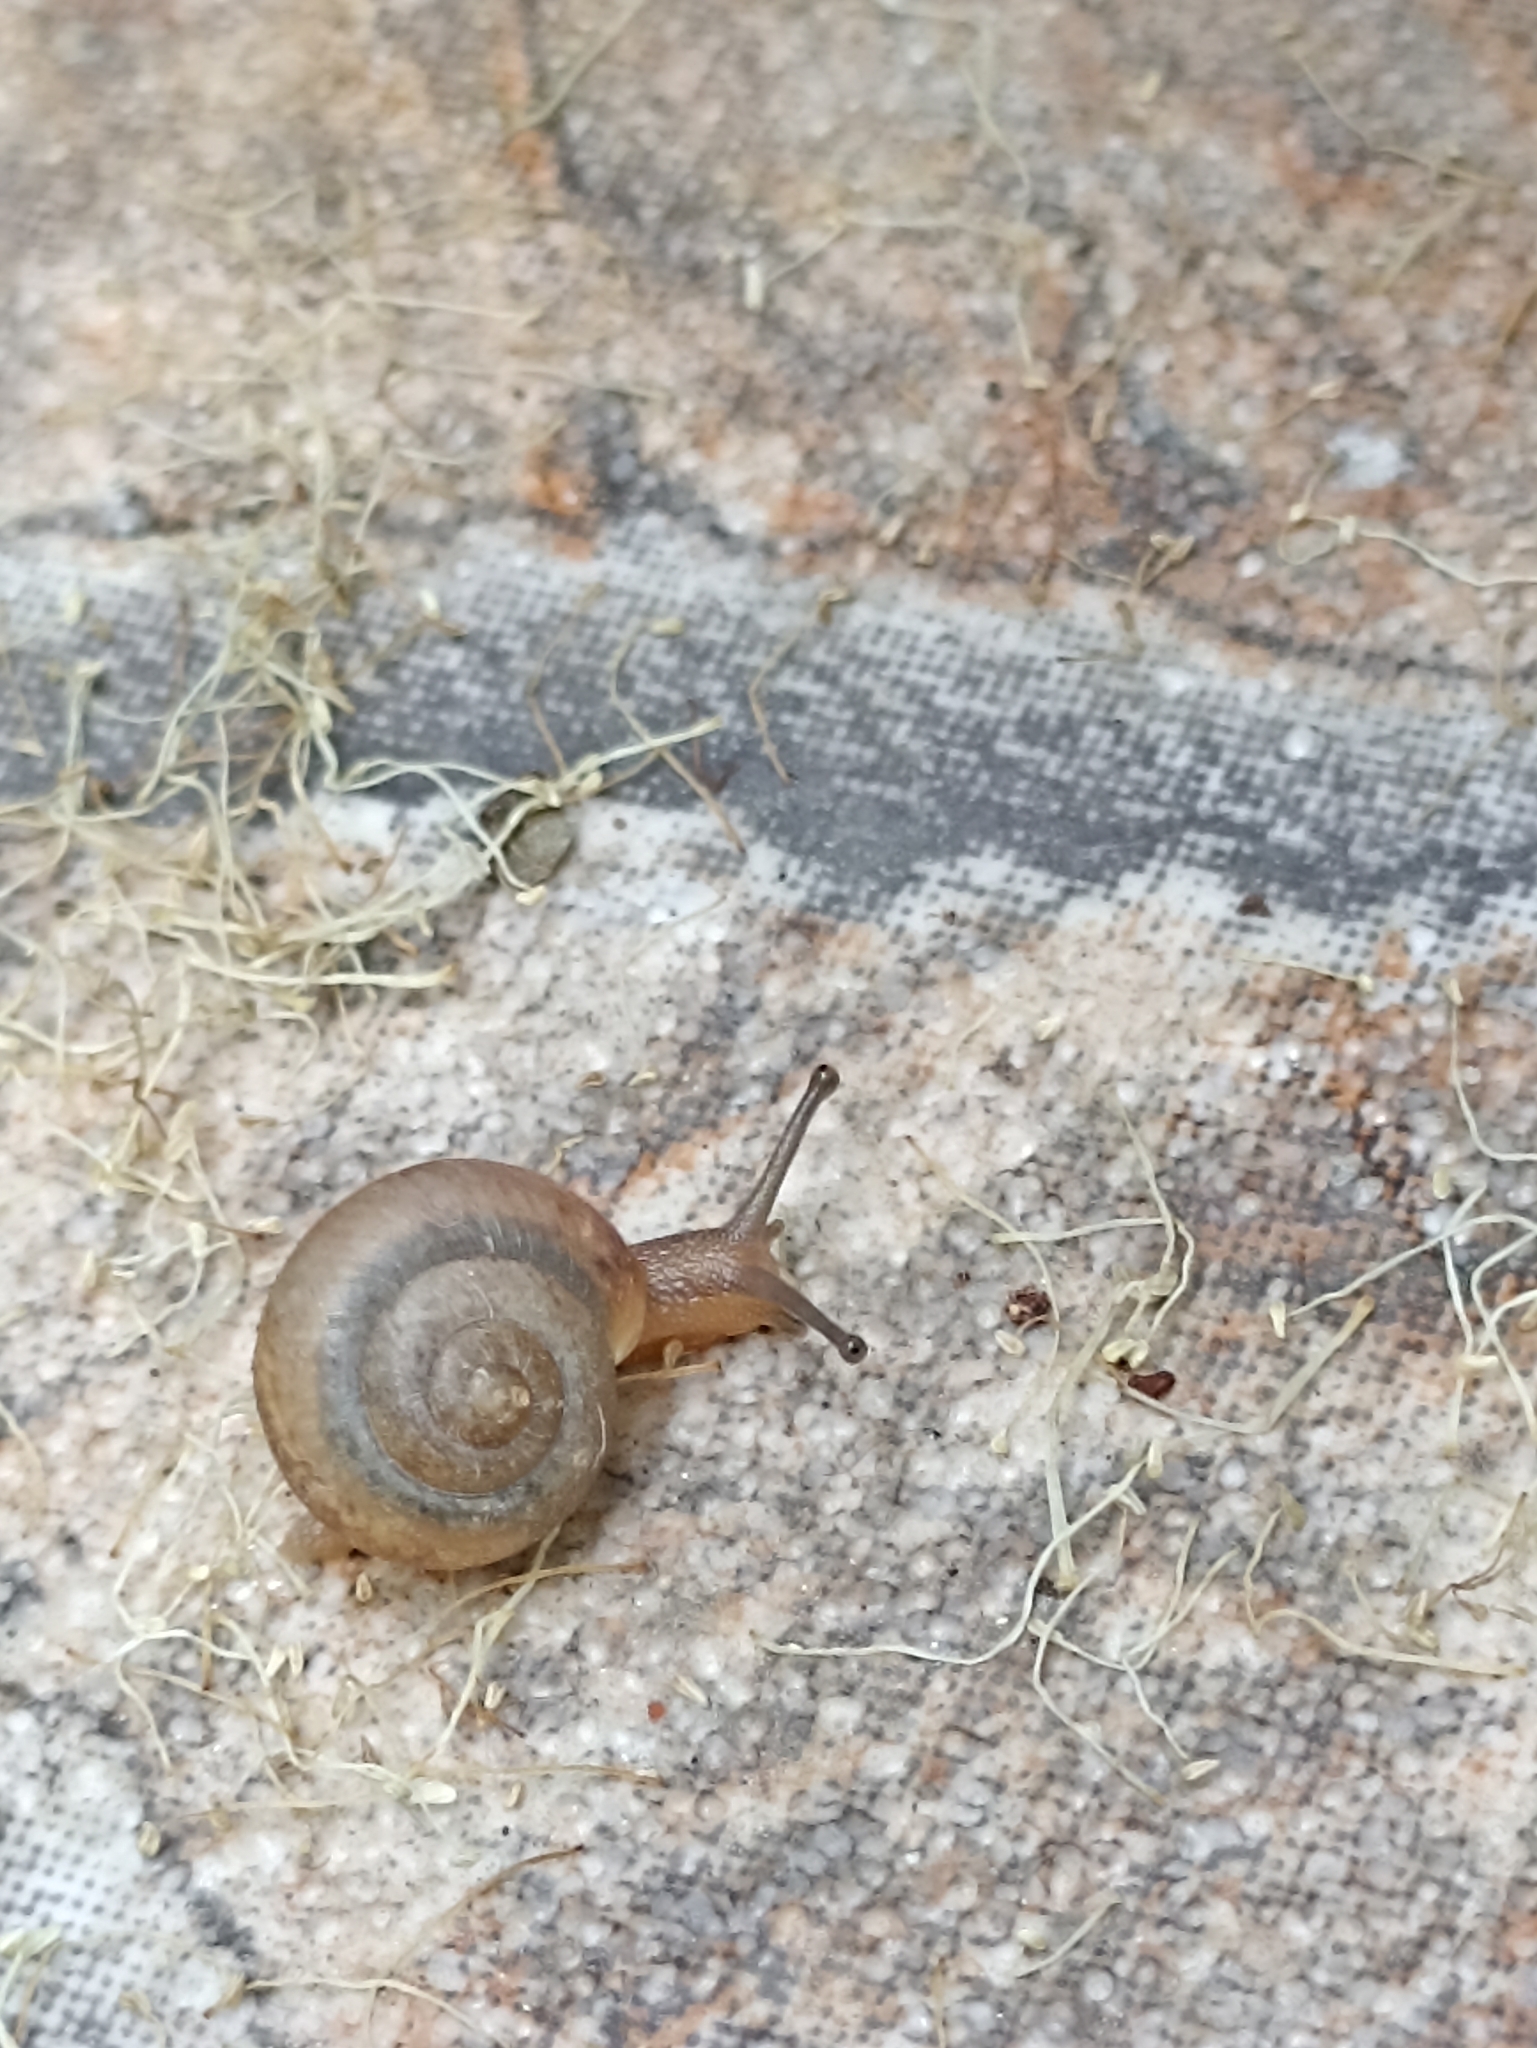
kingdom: Animalia
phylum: Mollusca
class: Gastropoda
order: Stylommatophora
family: Camaenidae
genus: Bradybaena
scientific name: Bradybaena similaris
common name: Asian trampsnail
